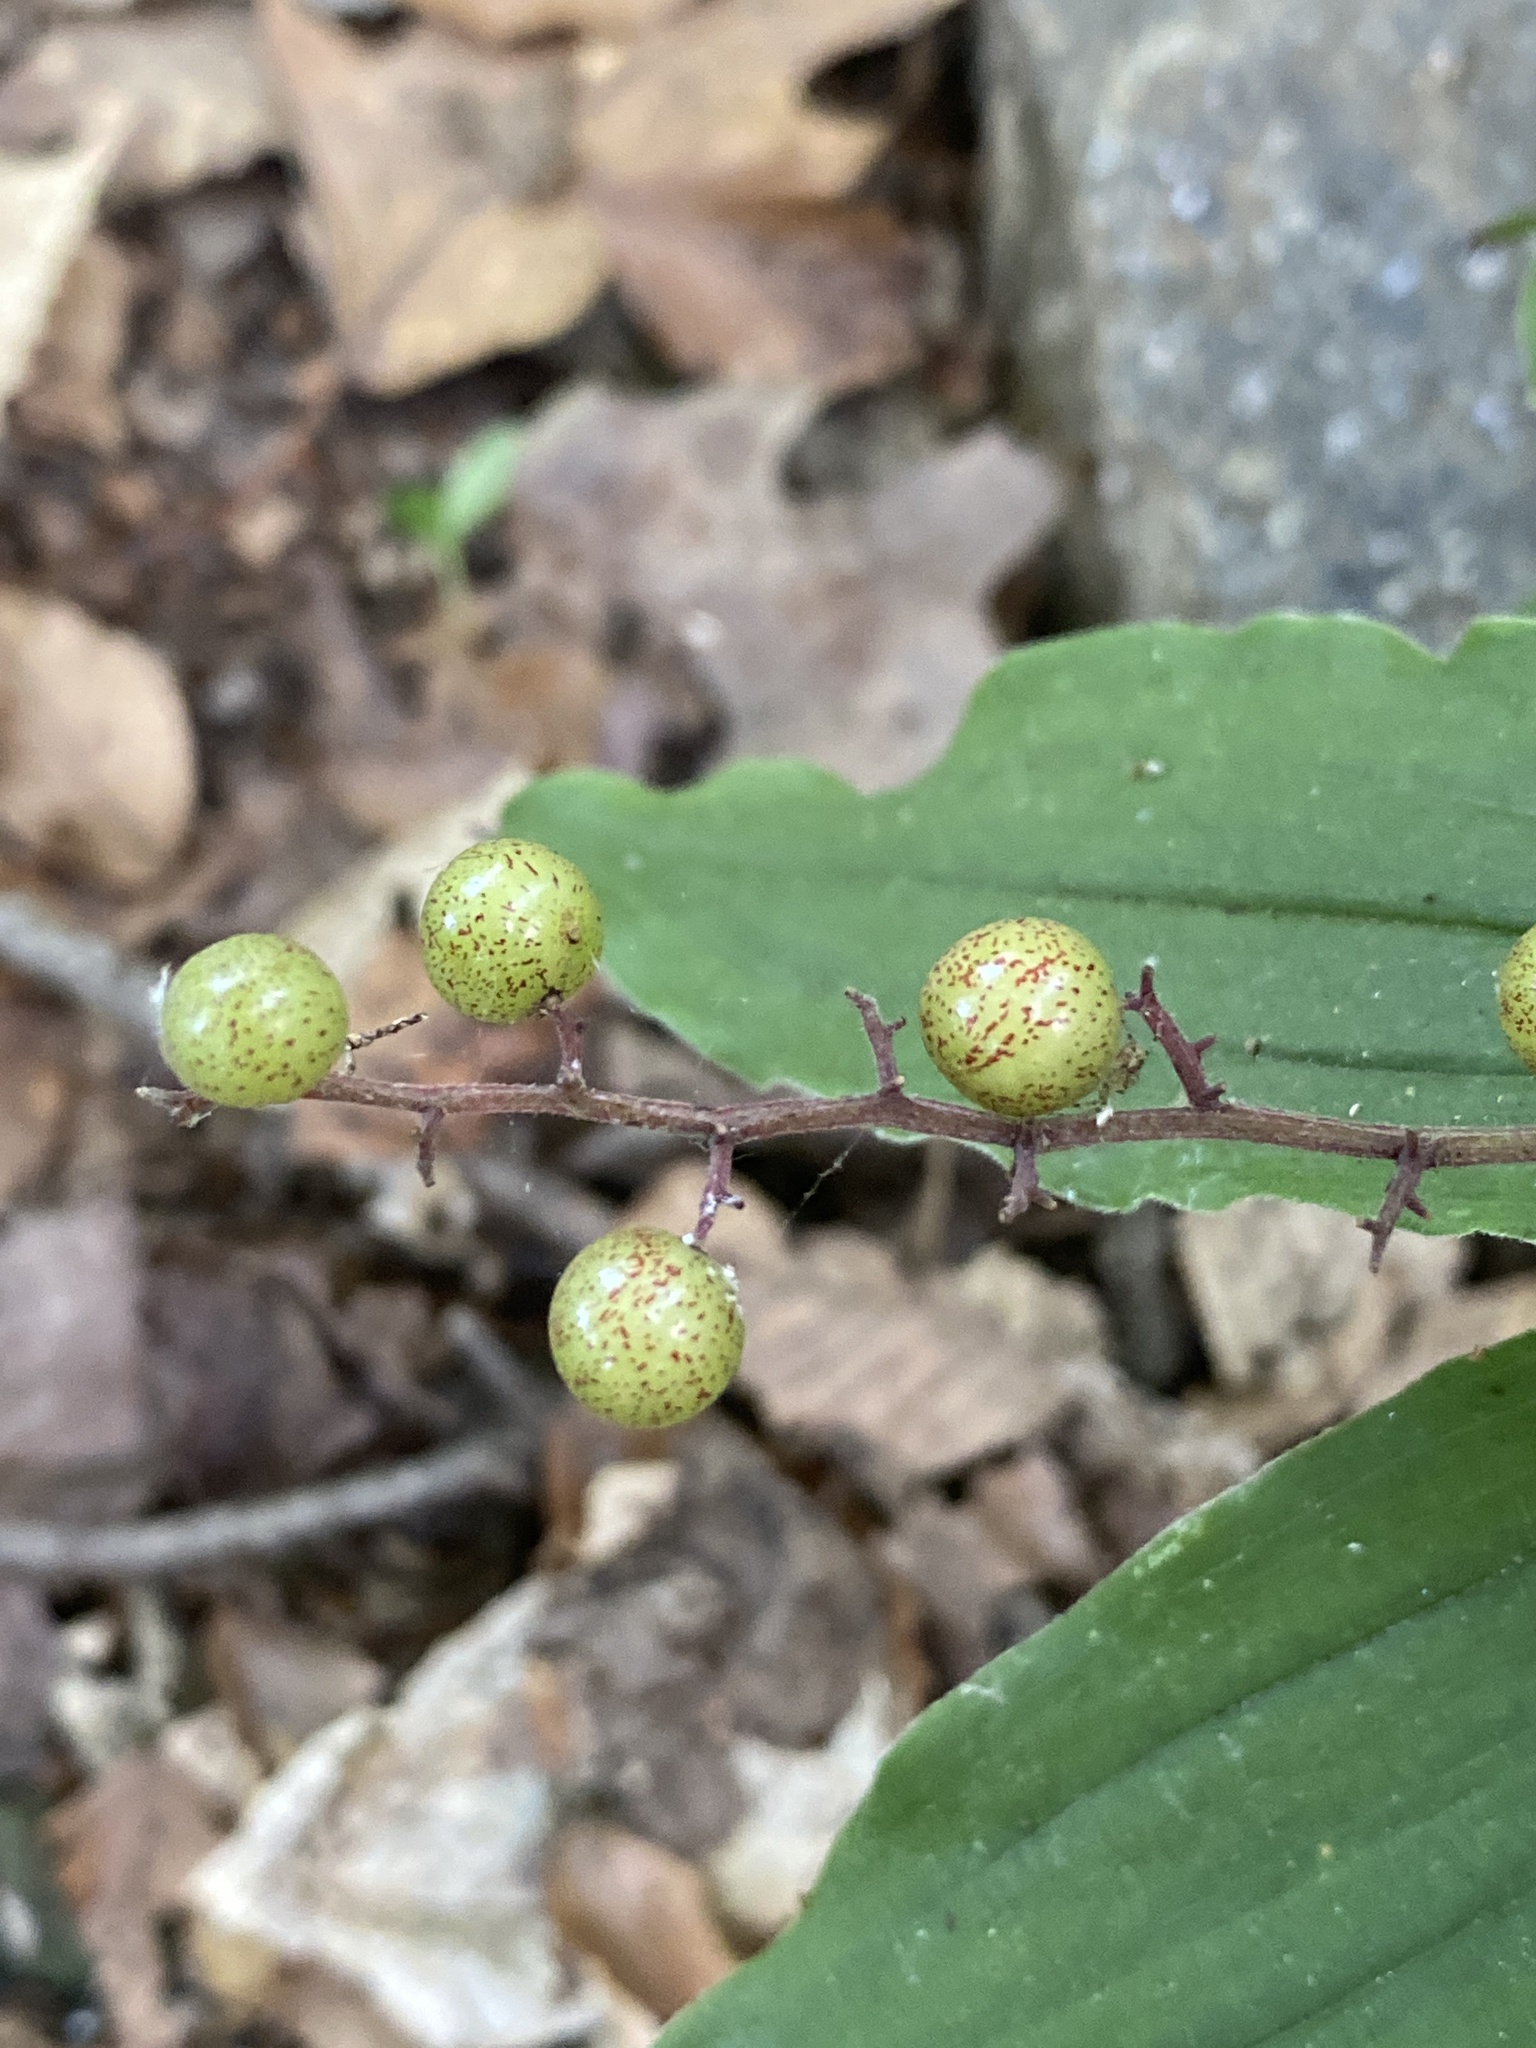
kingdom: Plantae
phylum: Tracheophyta
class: Liliopsida
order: Asparagales
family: Asparagaceae
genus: Maianthemum
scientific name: Maianthemum racemosum
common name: False spikenard
